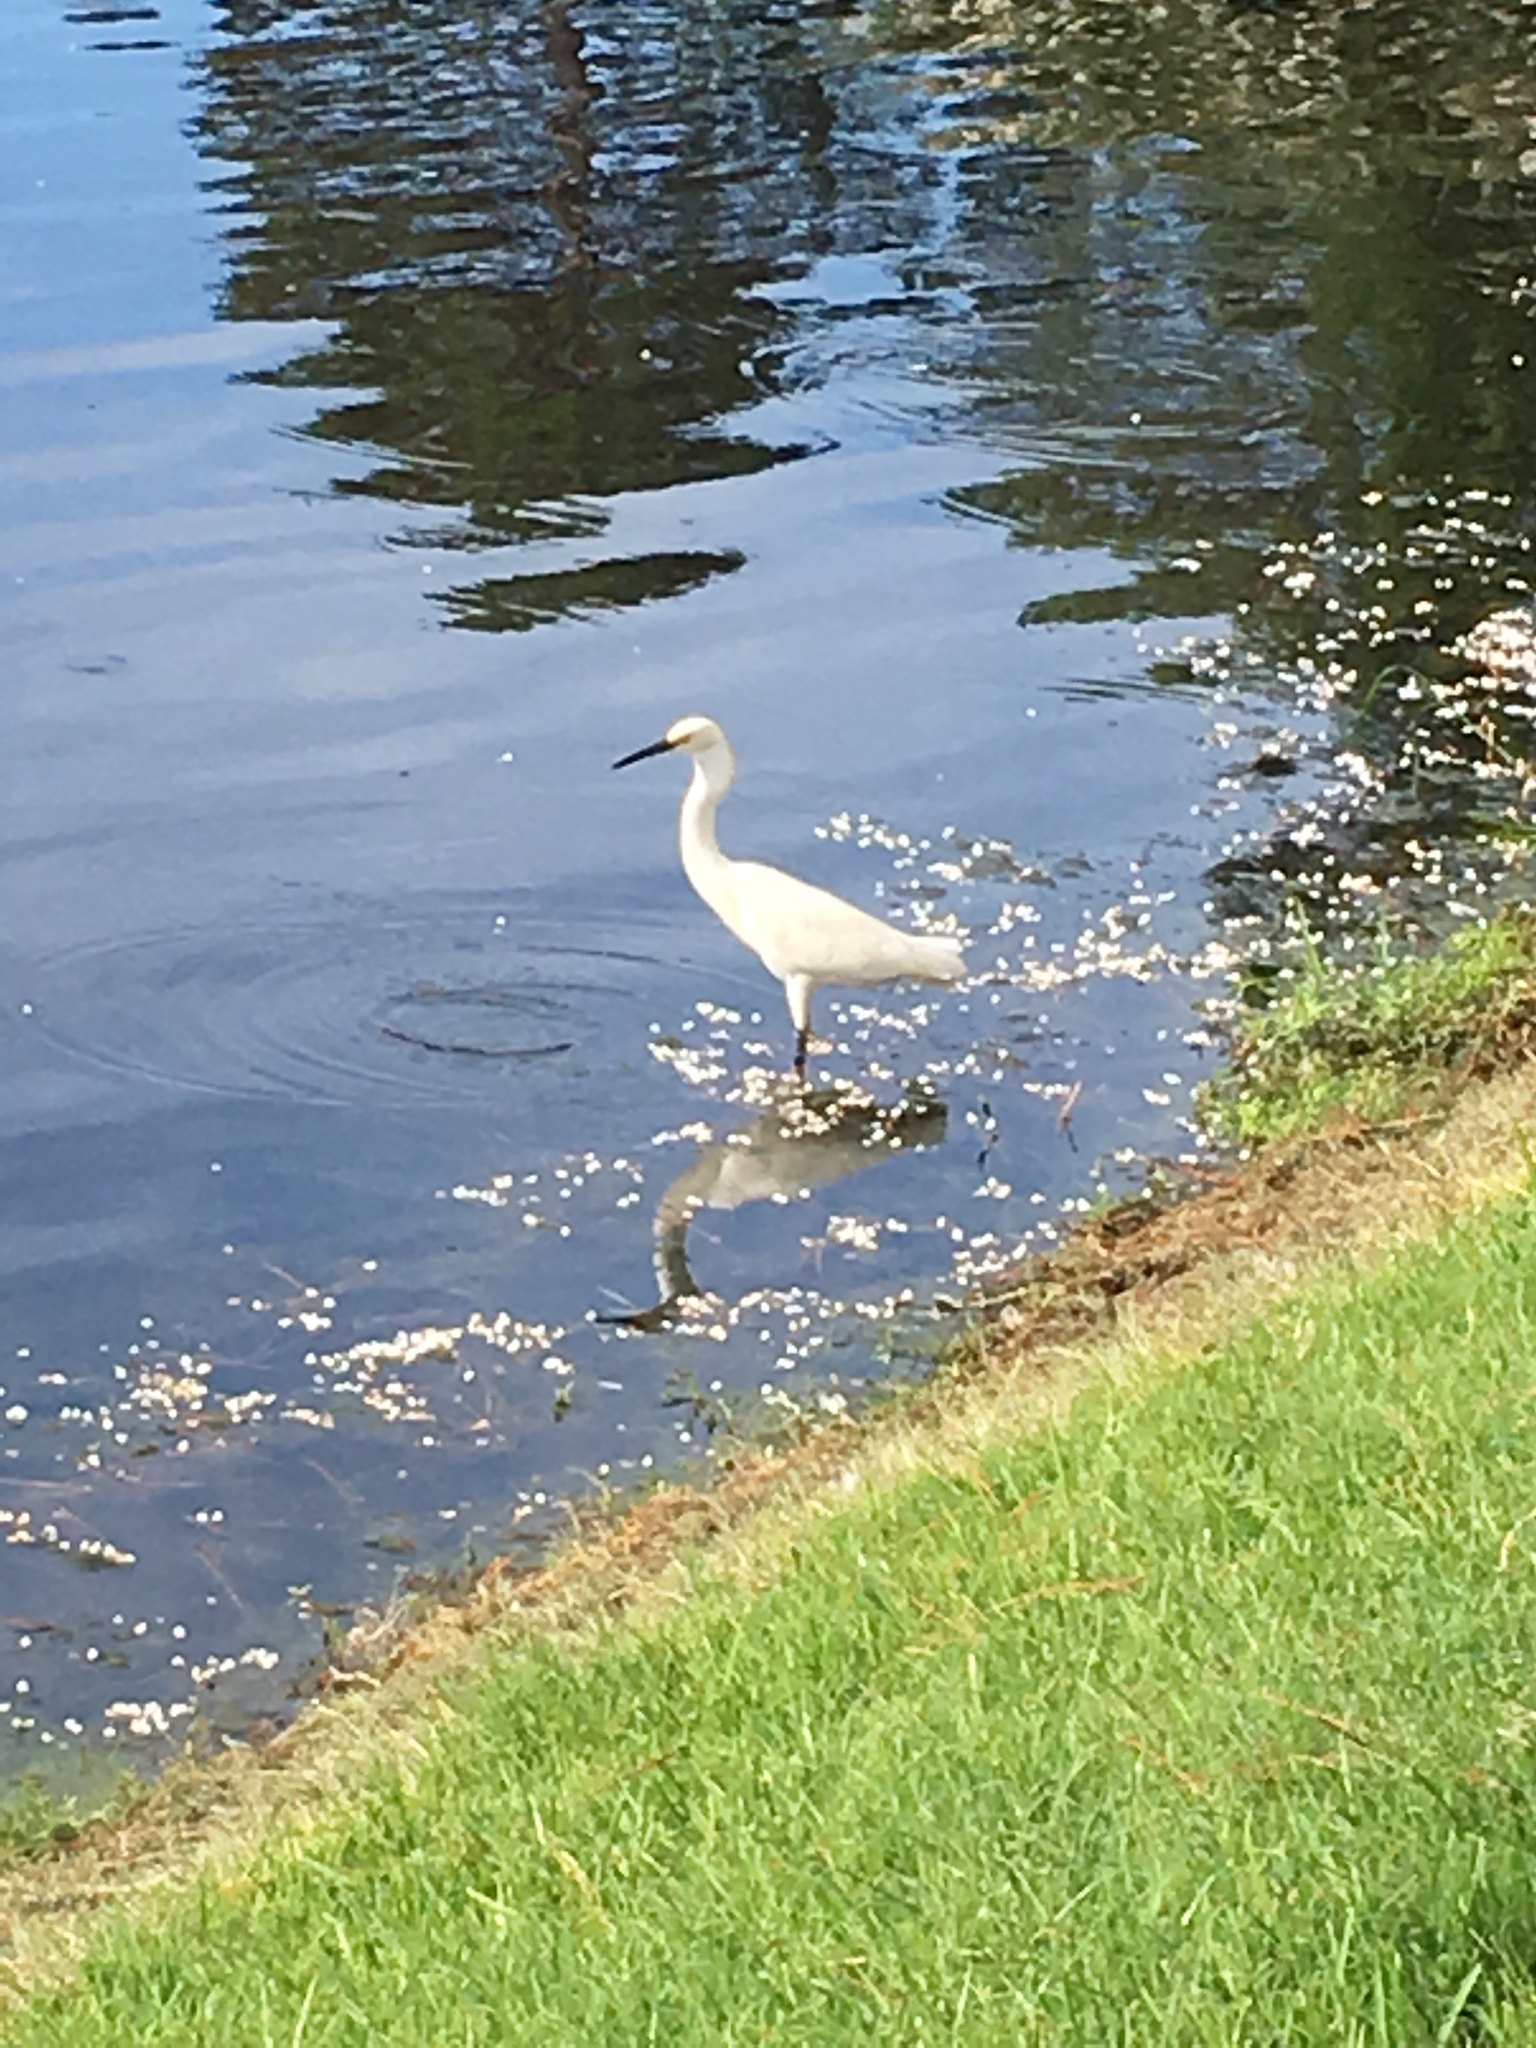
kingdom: Animalia
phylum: Chordata
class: Aves
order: Pelecaniformes
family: Ardeidae
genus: Egretta
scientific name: Egretta thula
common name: Snowy egret
